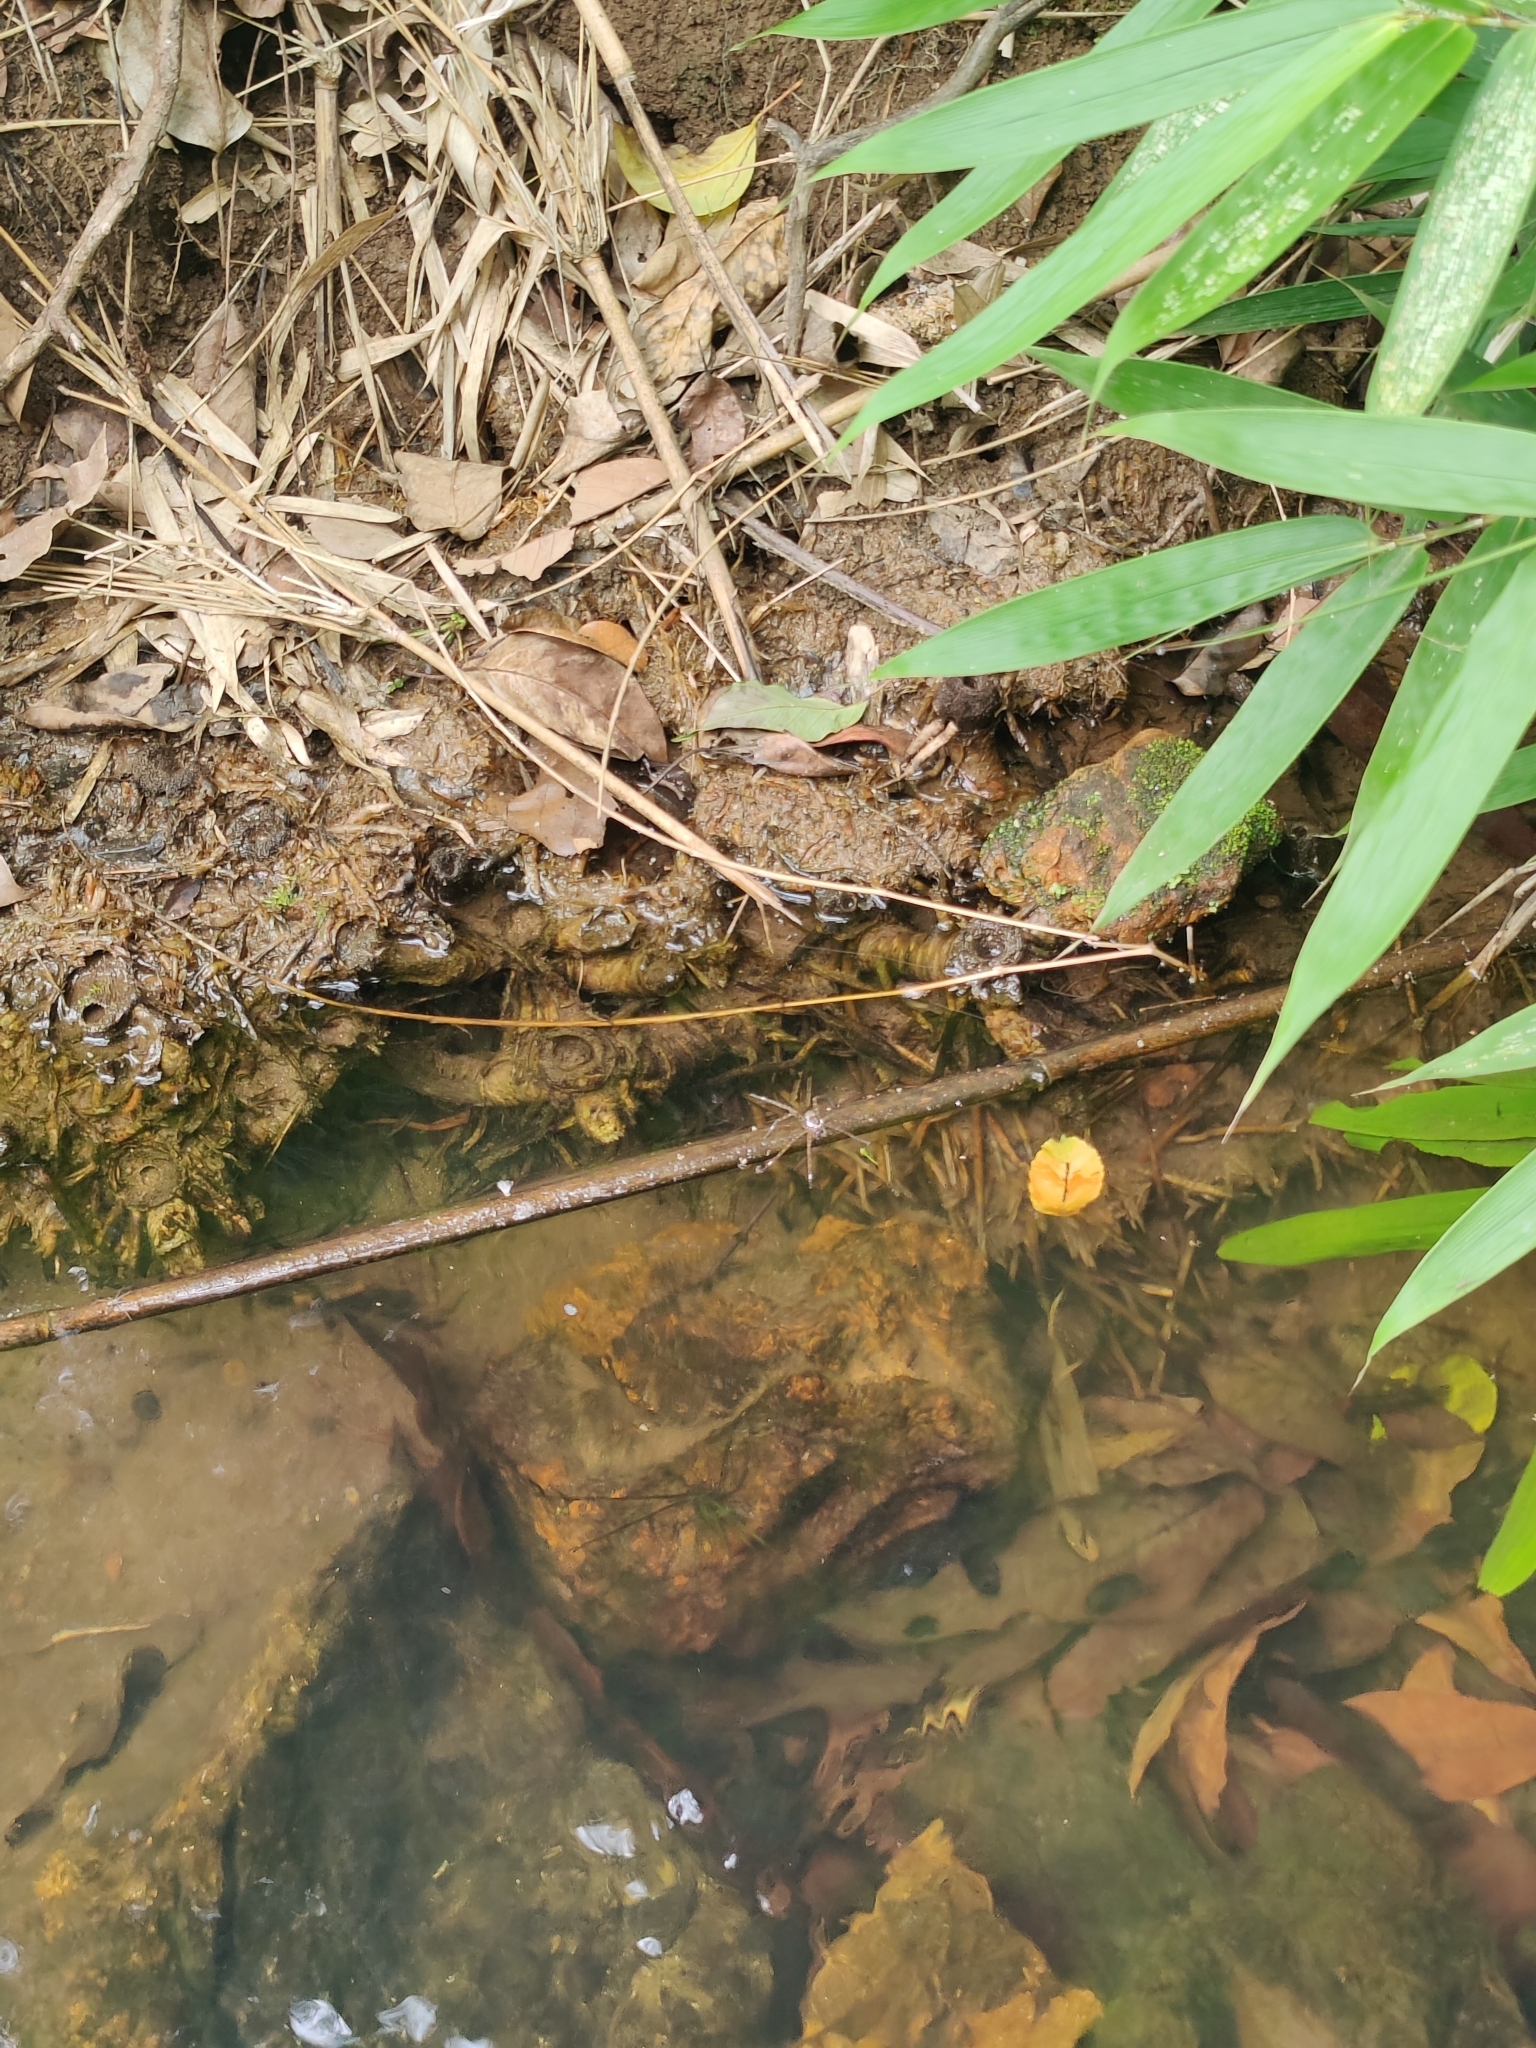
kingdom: Animalia
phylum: Arthropoda
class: Arachnida
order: Araneae
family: Pisauridae
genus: Eucamptopus
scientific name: Eucamptopus coronatus
